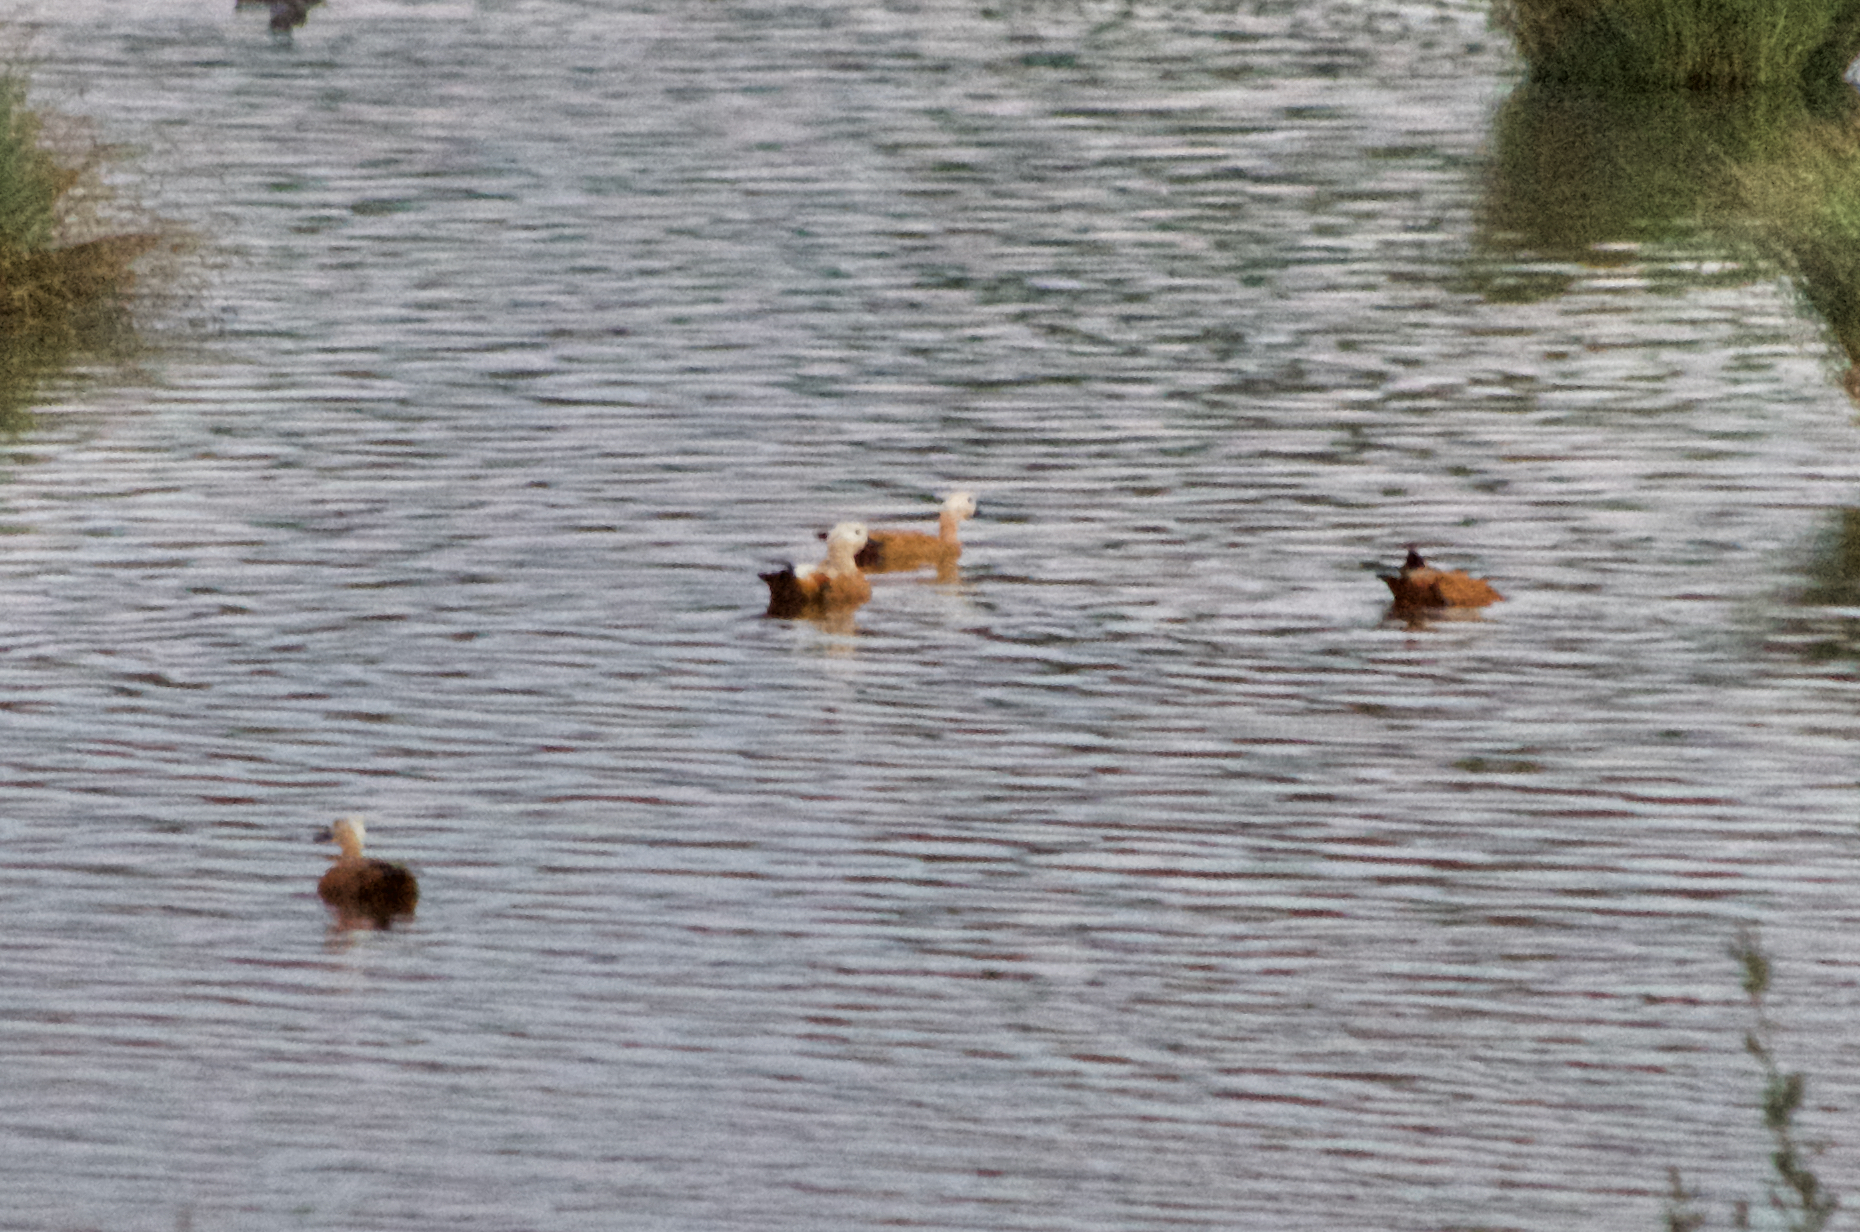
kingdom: Animalia
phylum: Chordata
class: Aves
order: Anseriformes
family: Anatidae
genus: Tadorna
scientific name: Tadorna ferruginea
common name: Ruddy shelduck
